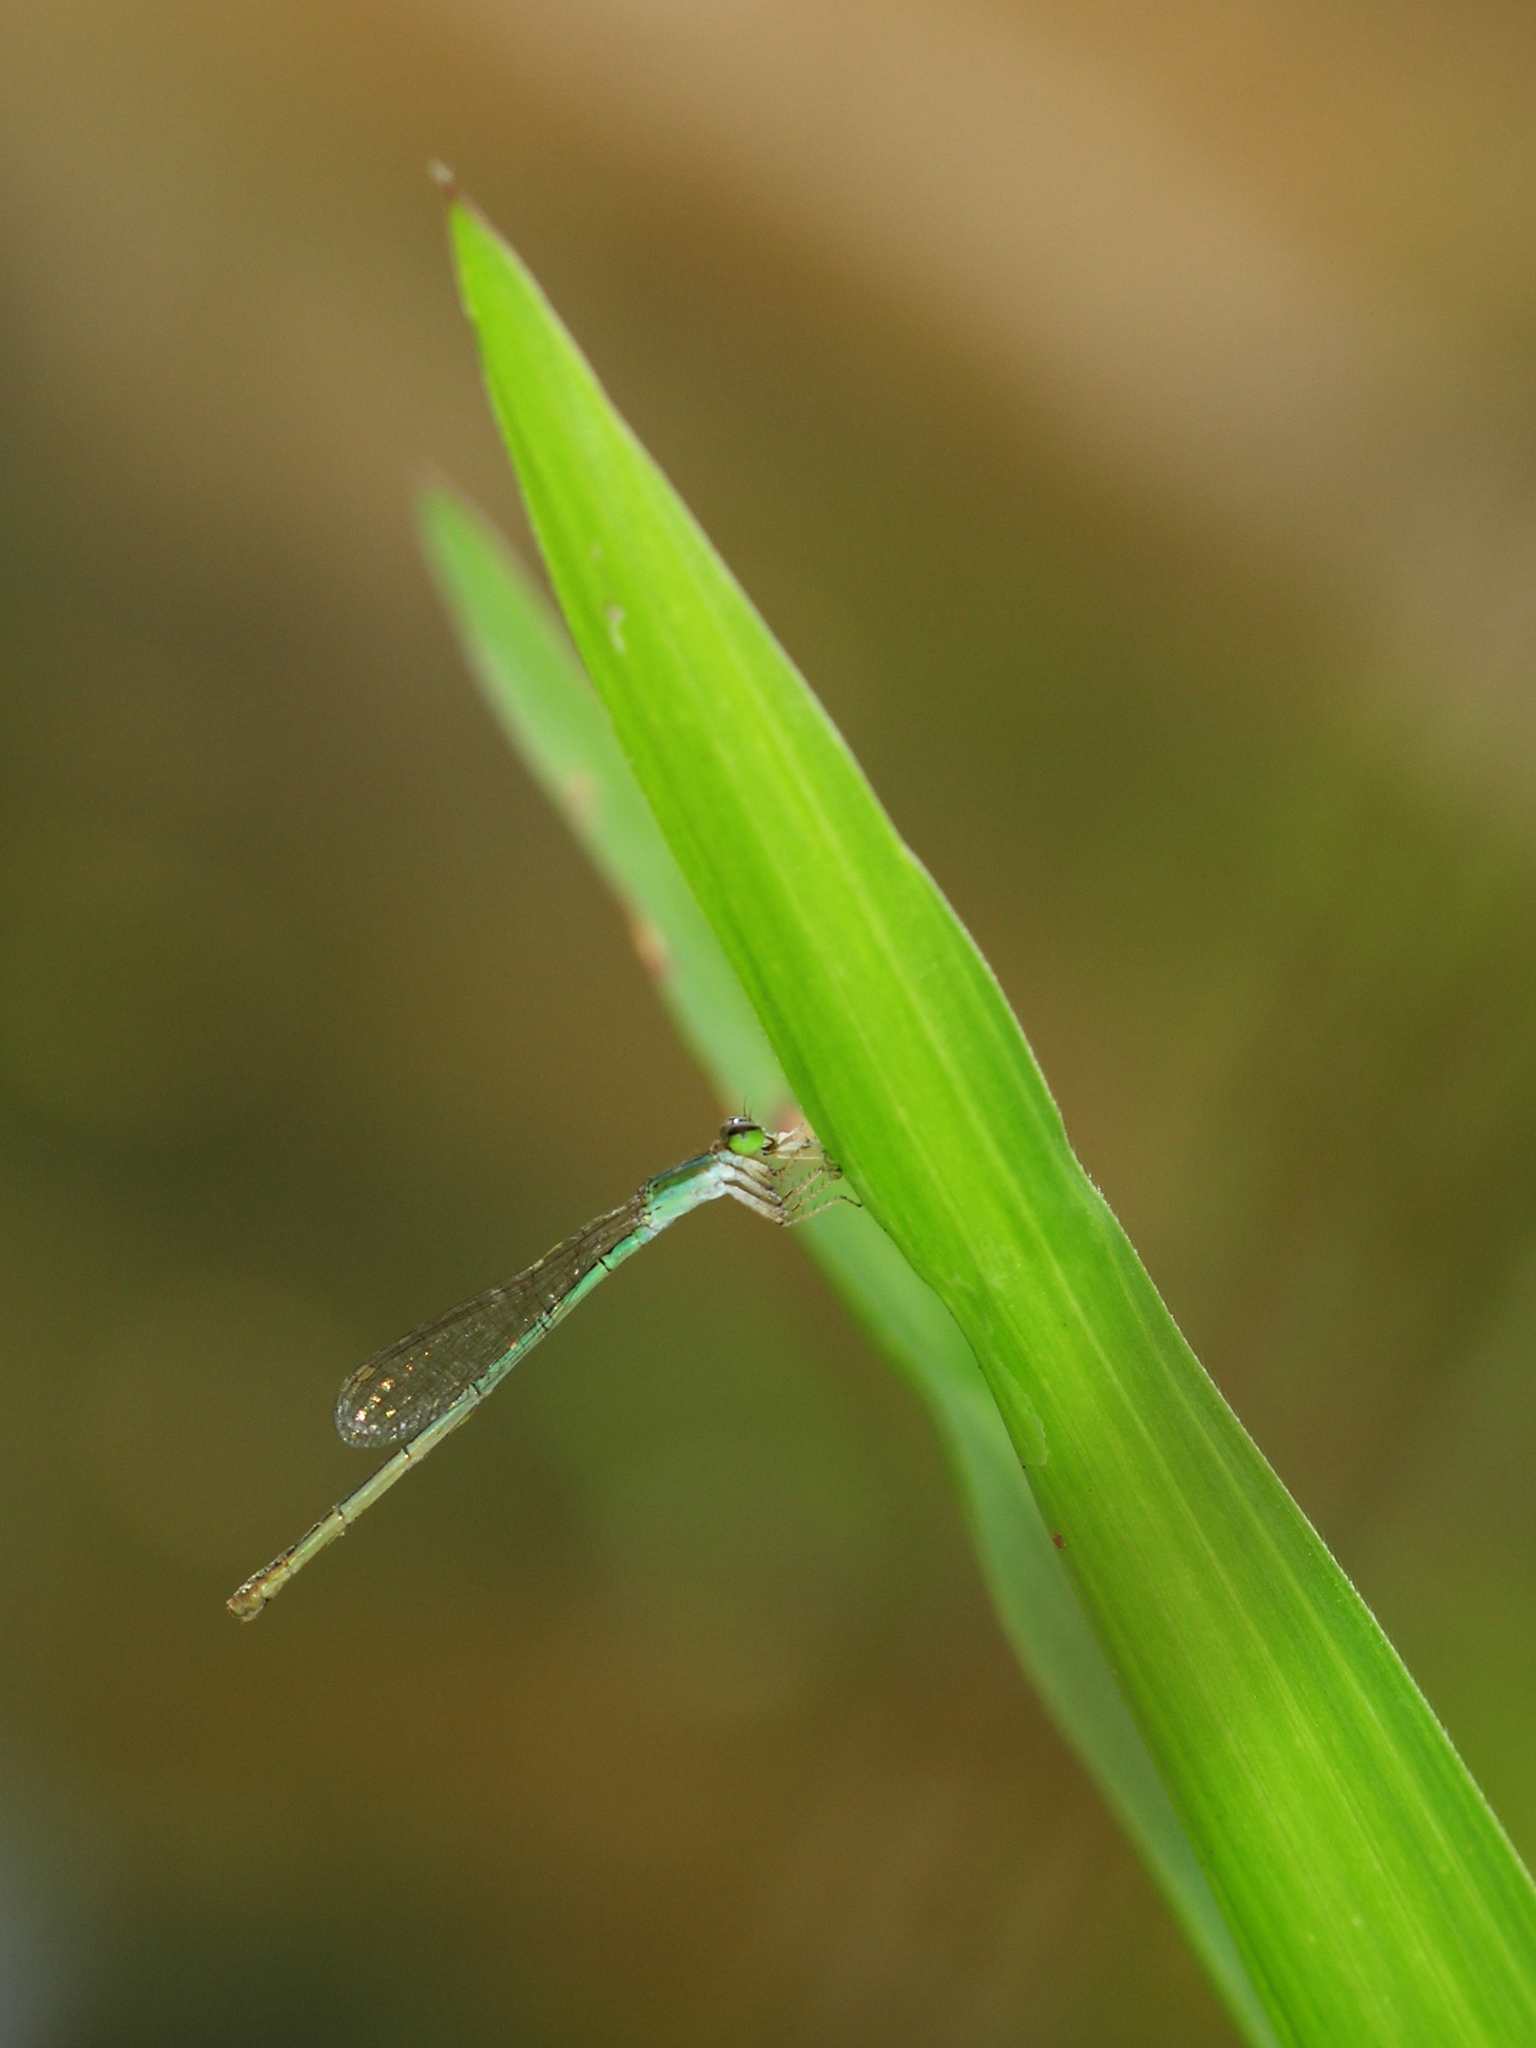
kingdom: Animalia
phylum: Arthropoda
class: Insecta
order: Odonata
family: Coenagrionidae
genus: Agriocnemis
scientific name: Agriocnemis pygmaea
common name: Pygmy wisp
